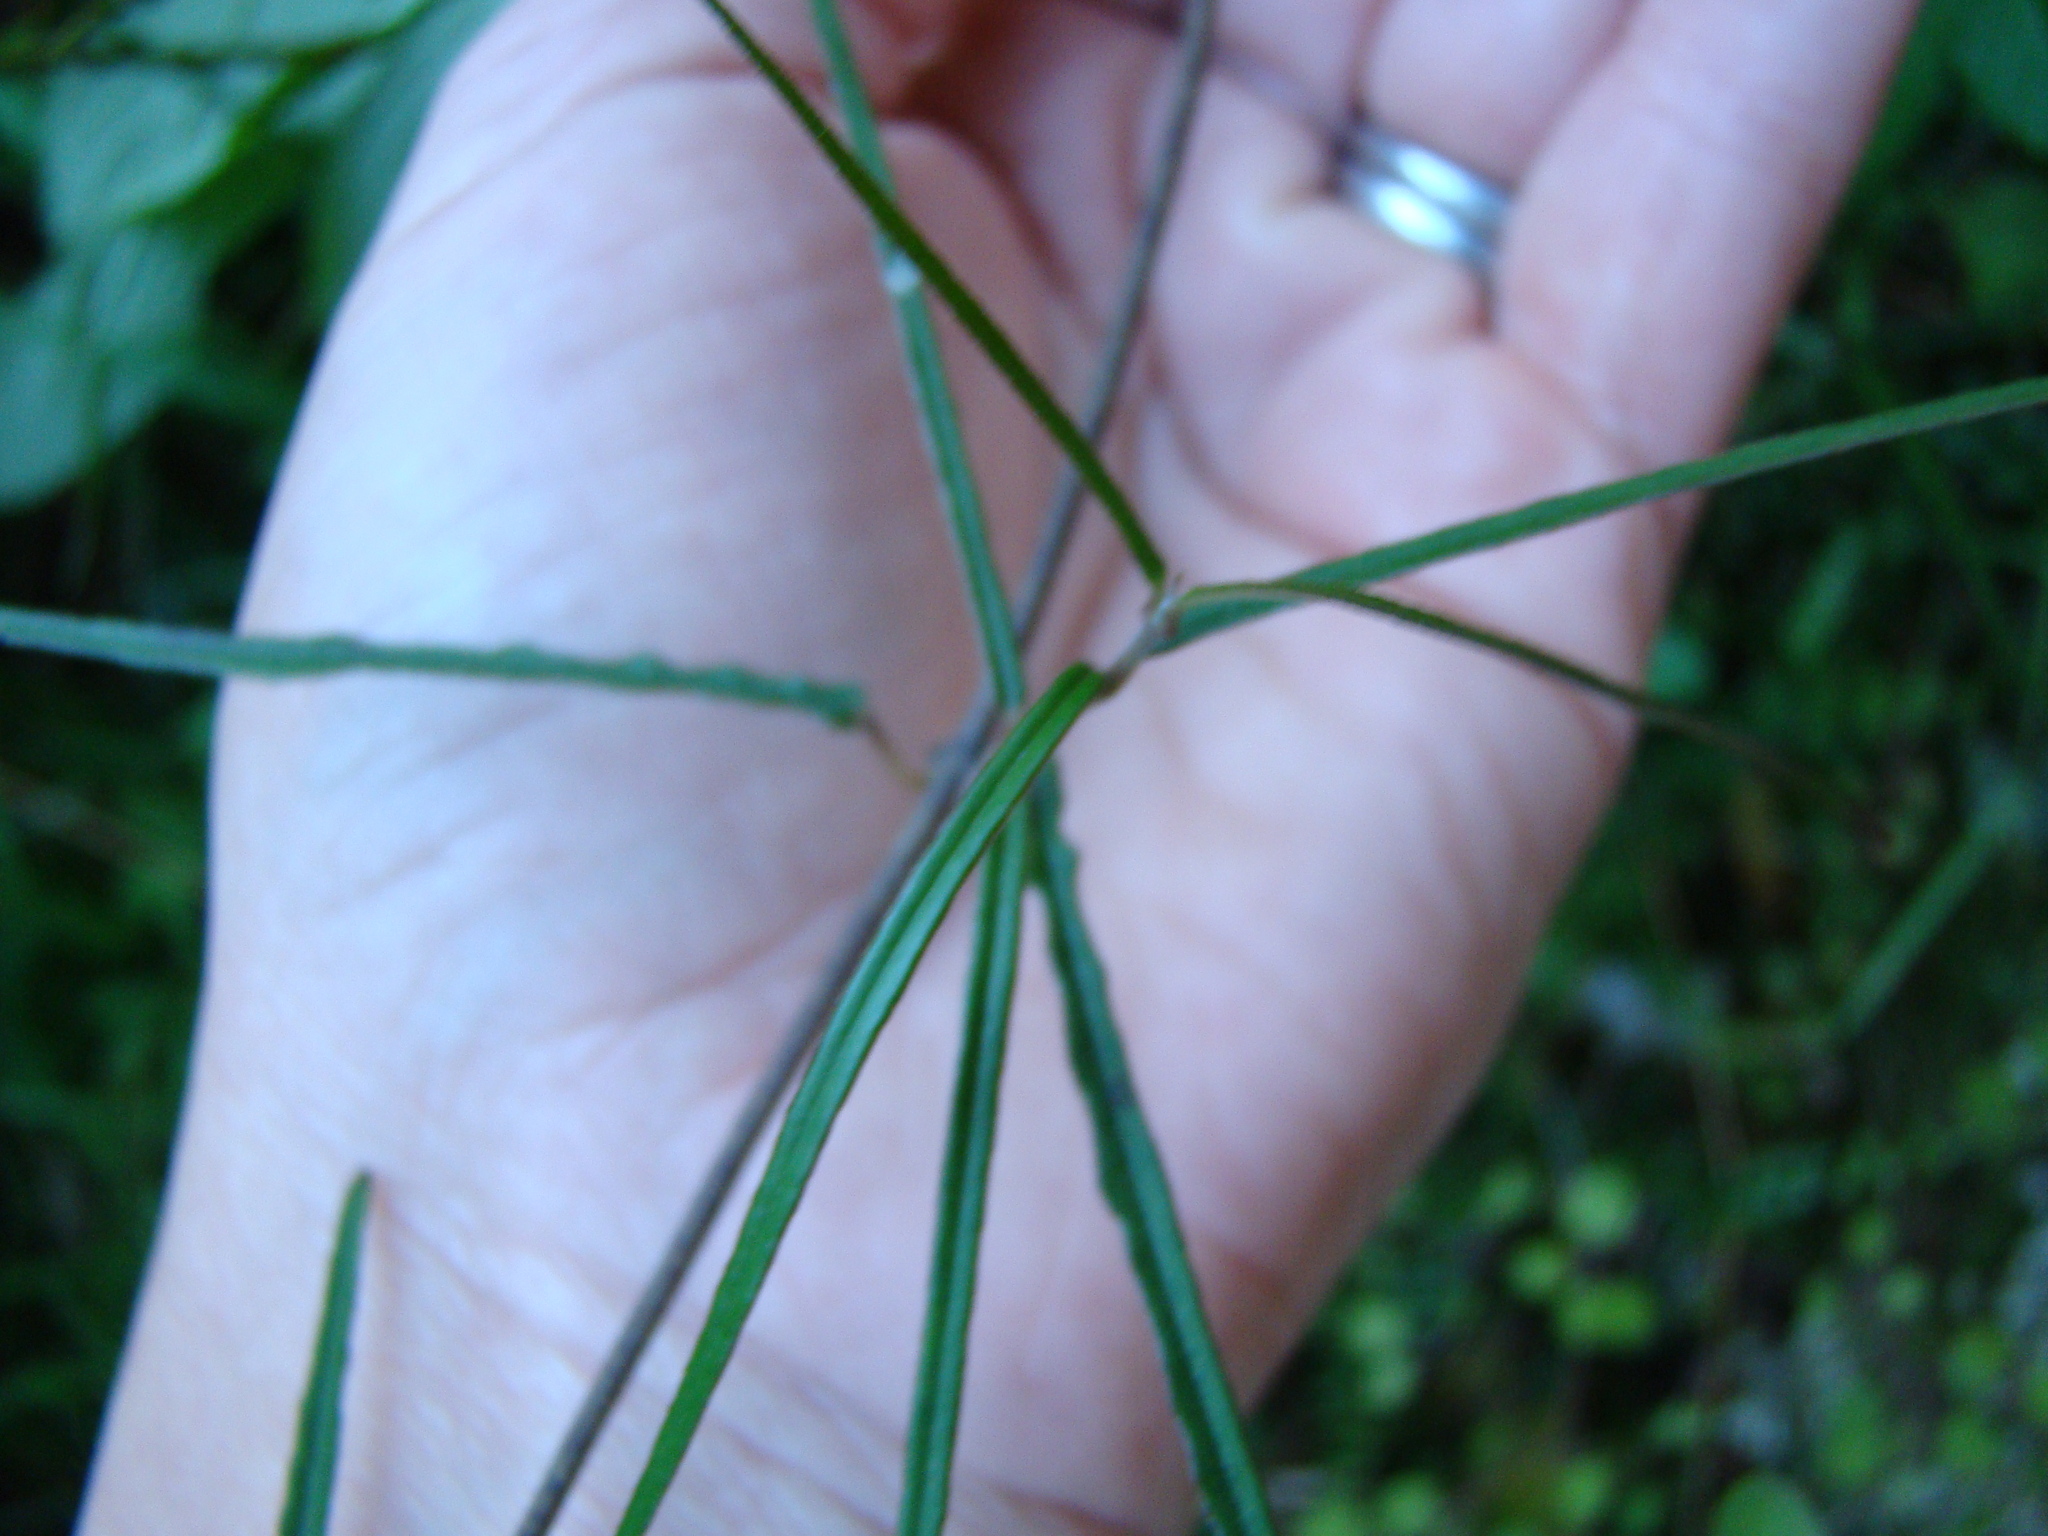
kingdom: Plantae
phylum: Tracheophyta
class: Magnoliopsida
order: Gentianales
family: Apocynaceae
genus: Parsonsia
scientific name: Parsonsia heterophylla
